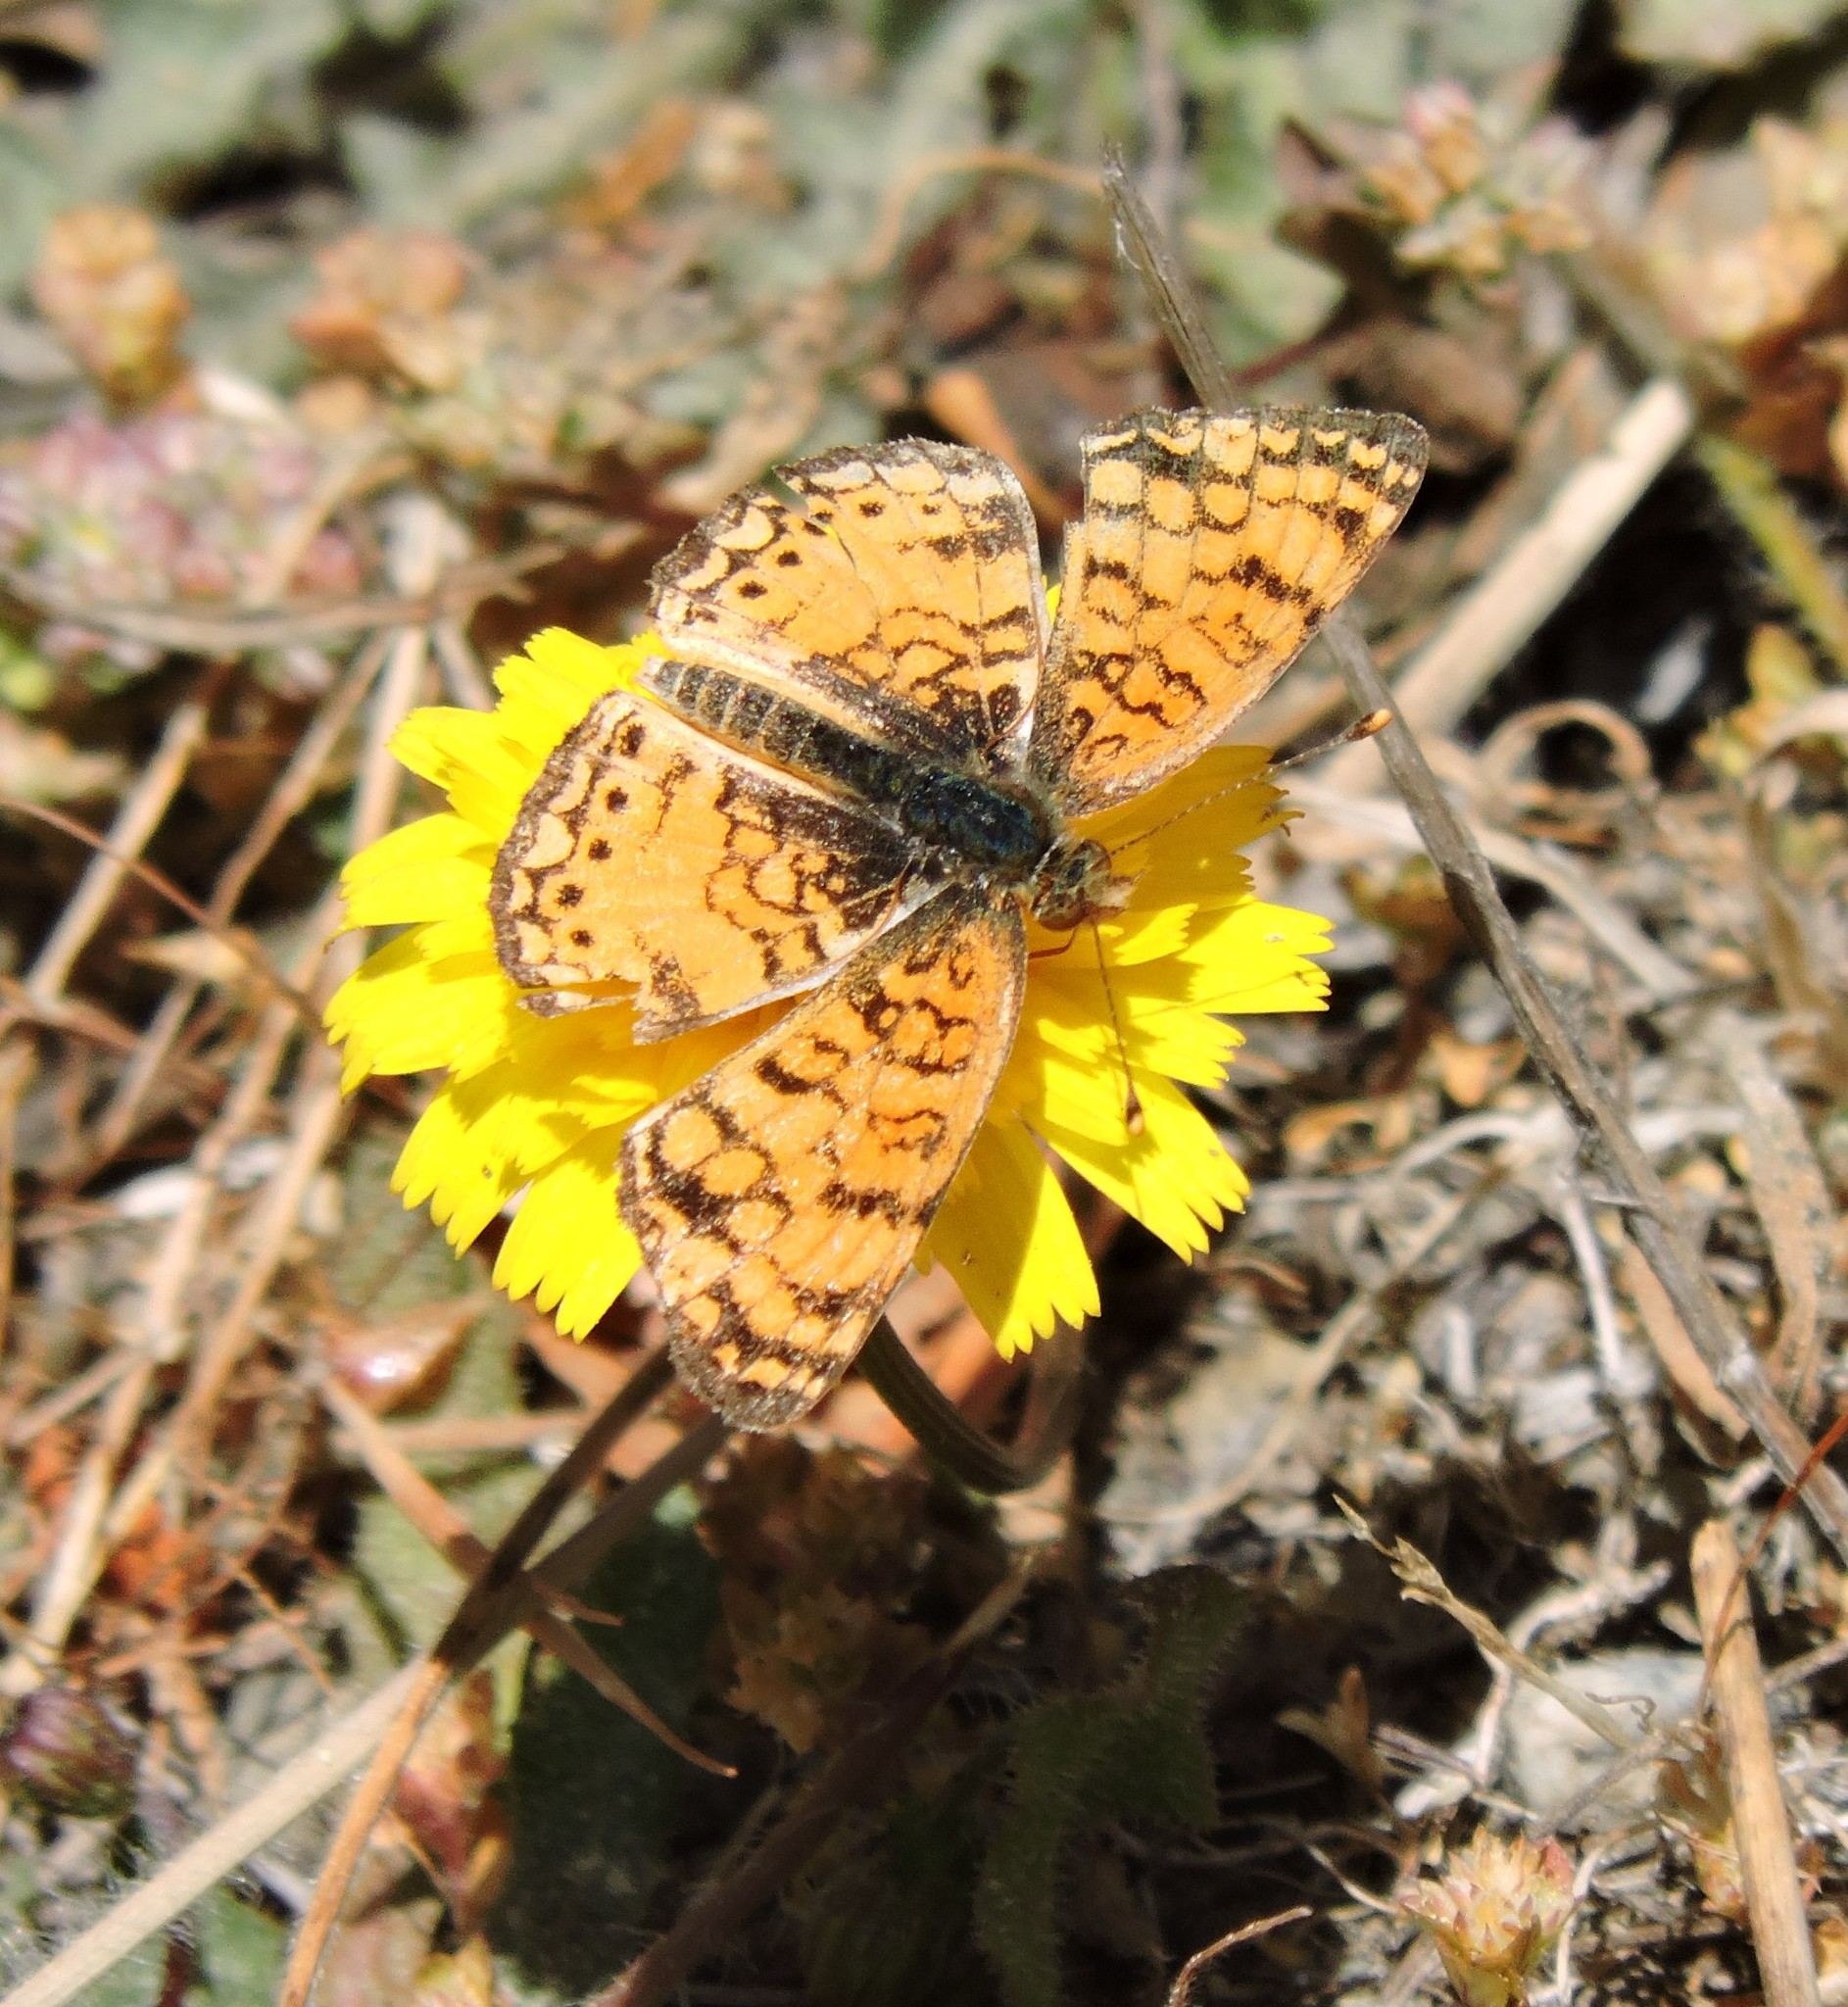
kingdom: Animalia
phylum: Arthropoda
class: Insecta
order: Lepidoptera
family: Nymphalidae
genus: Eresia
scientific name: Eresia aveyrona
